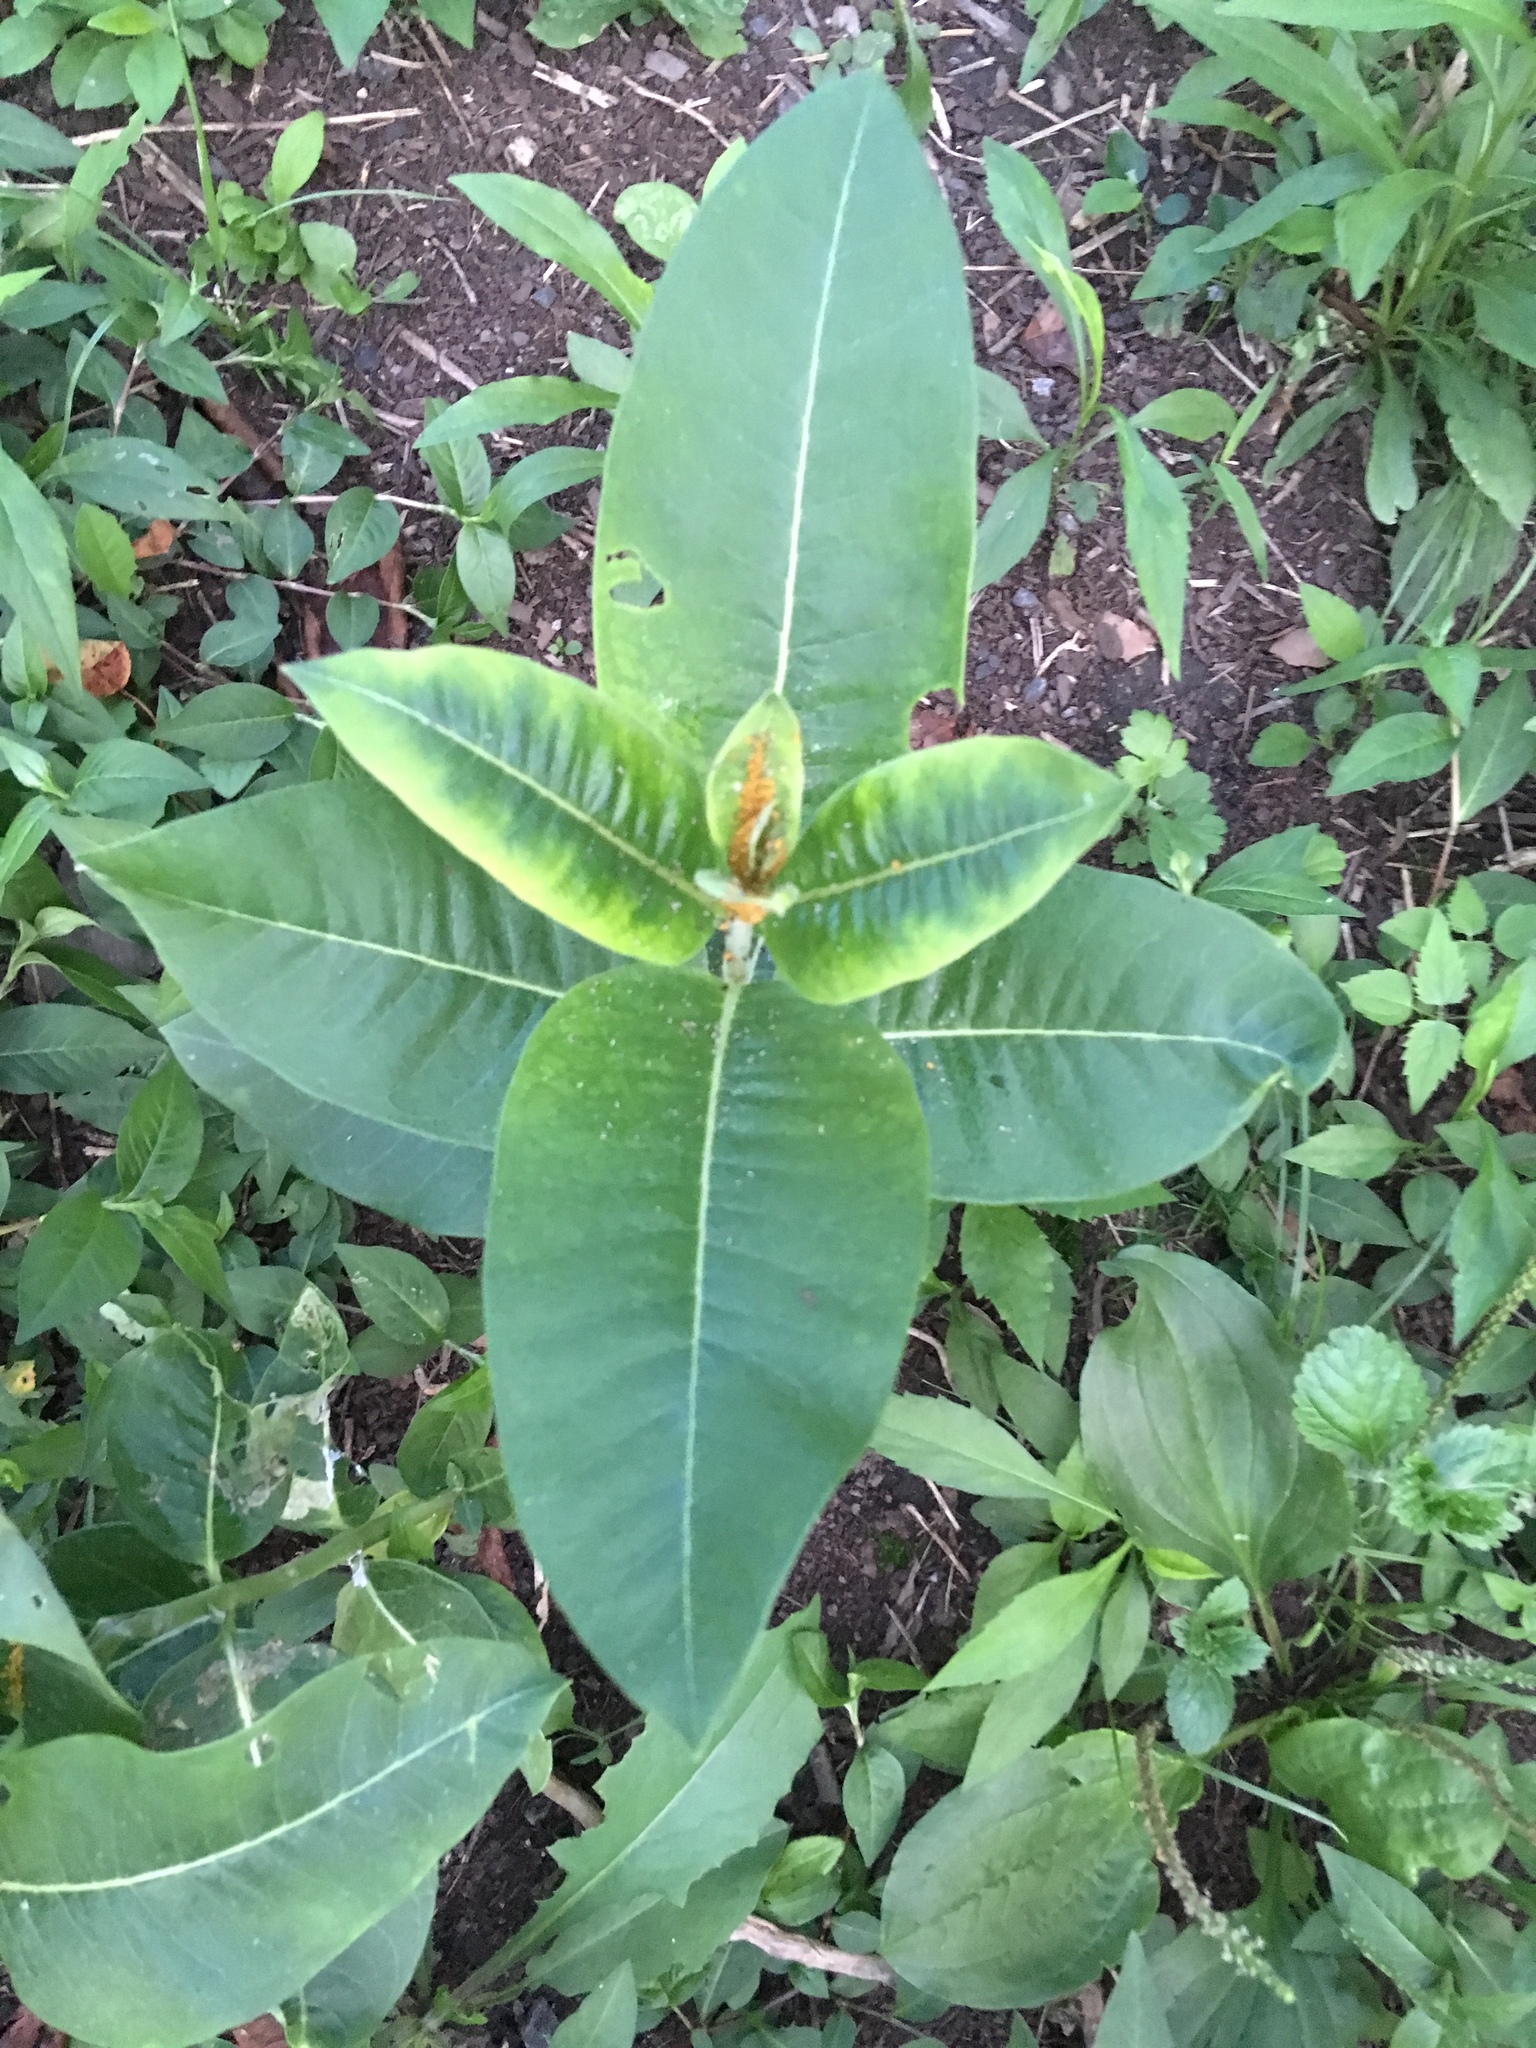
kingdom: Plantae
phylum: Tracheophyta
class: Magnoliopsida
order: Gentianales
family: Apocynaceae
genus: Asclepias
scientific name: Asclepias syriaca
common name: Common milkweed
